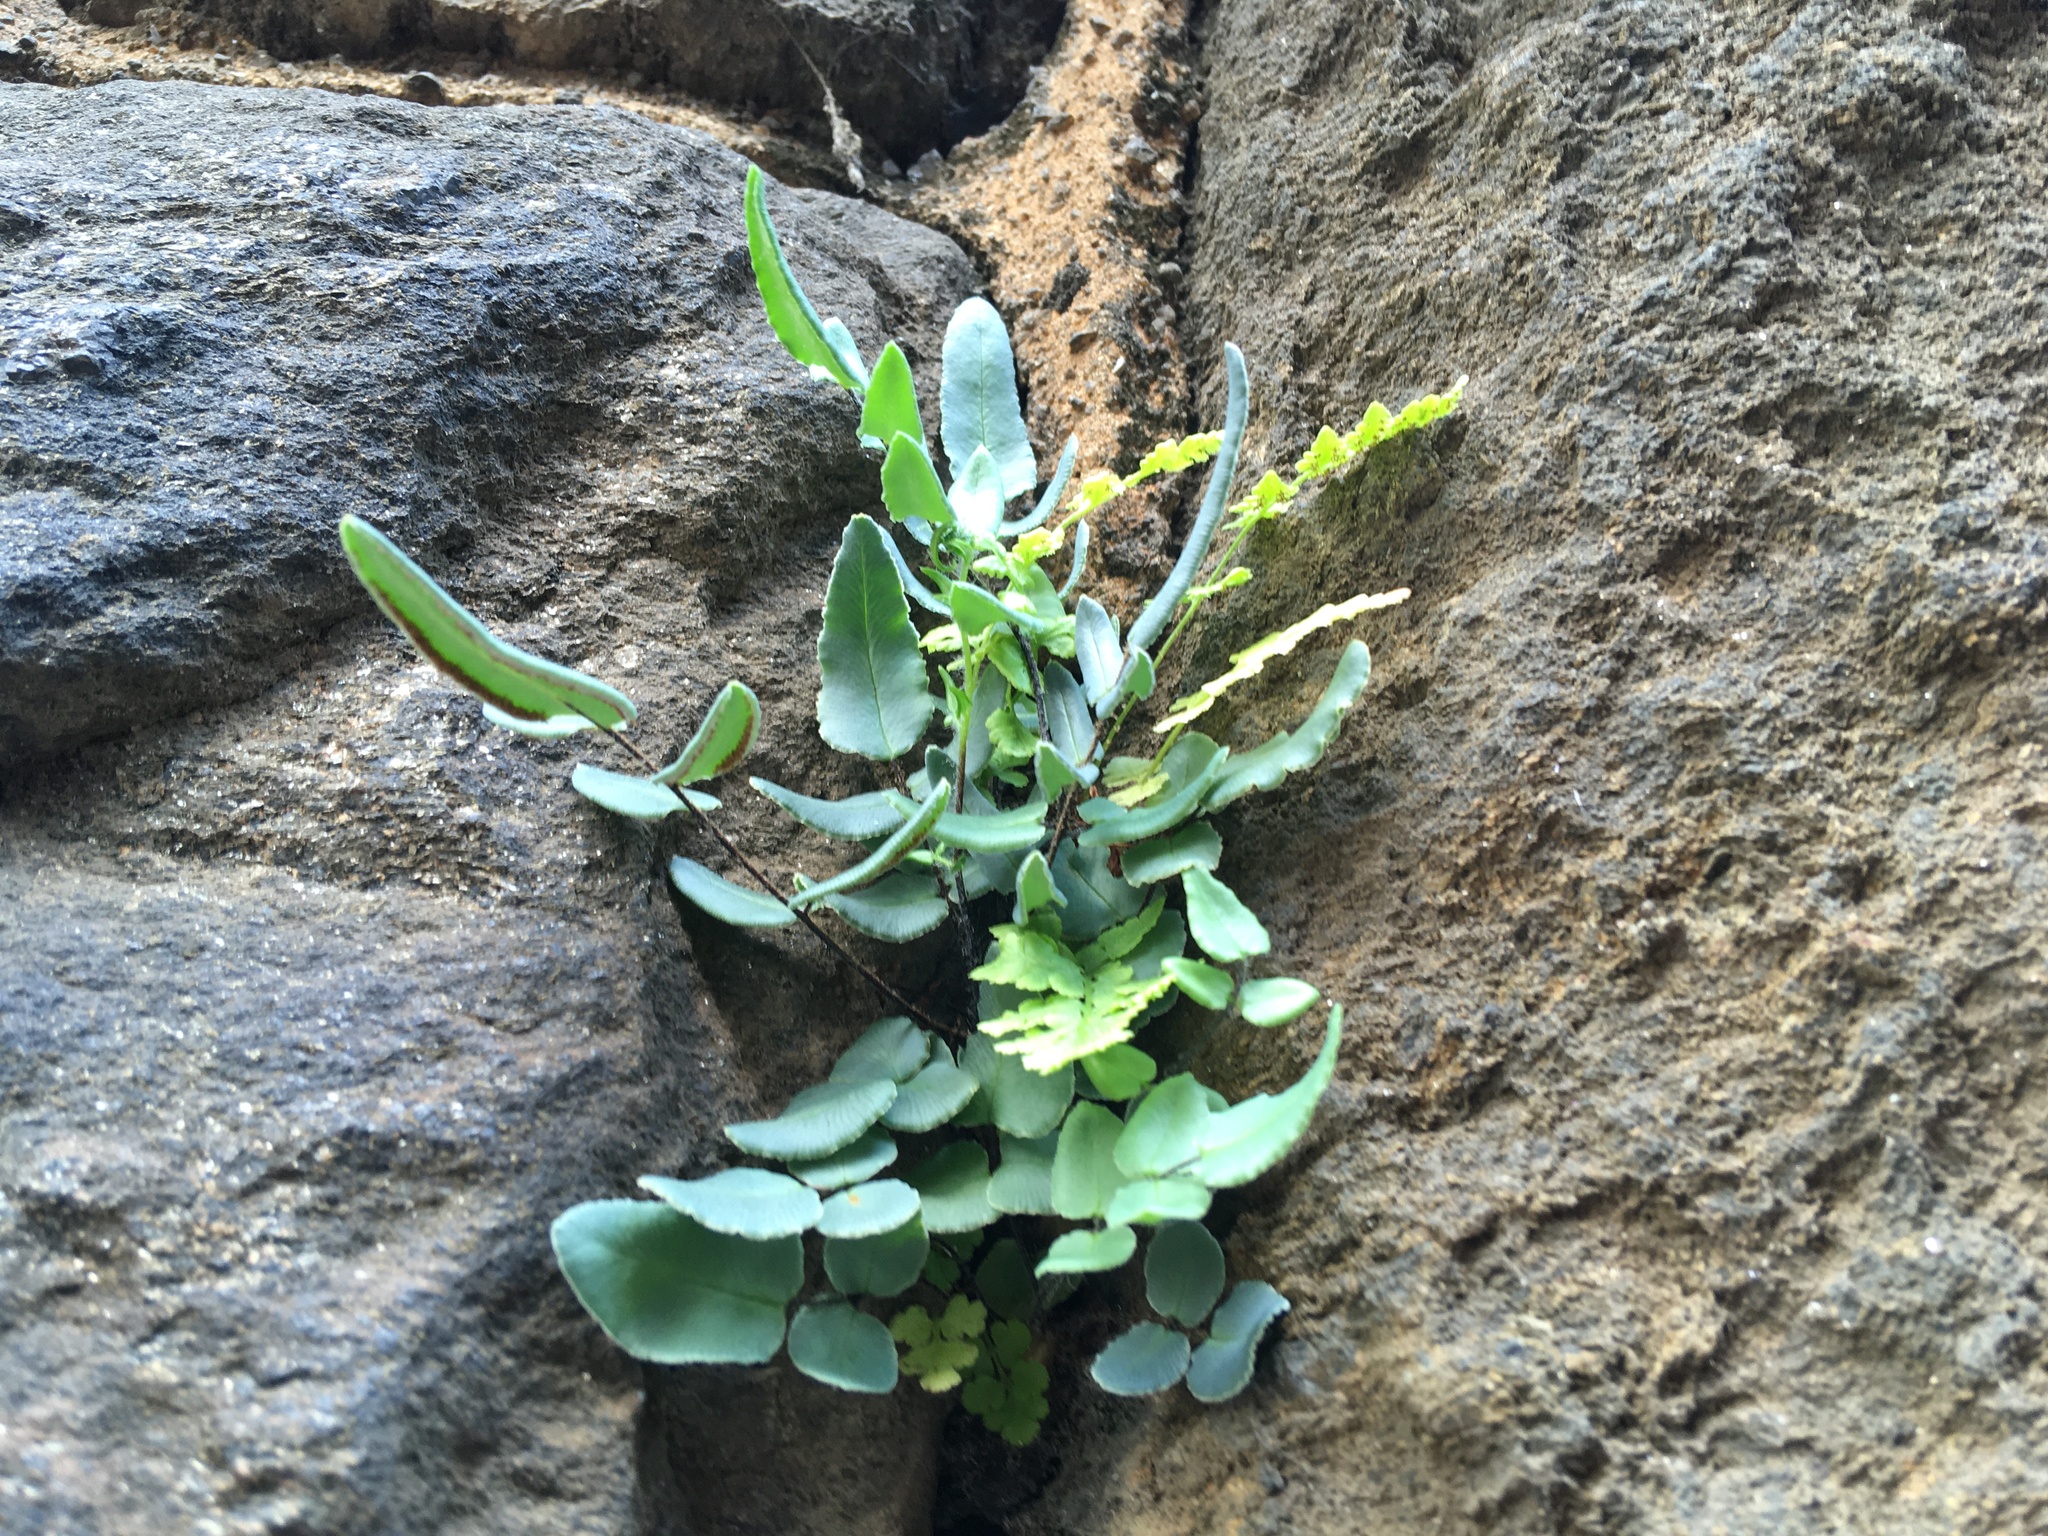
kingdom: Plantae
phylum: Tracheophyta
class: Polypodiopsida
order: Polypodiales
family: Pteridaceae
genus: Pellaea
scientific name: Pellaea atropurpurea
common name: Hairy cliffbrake
